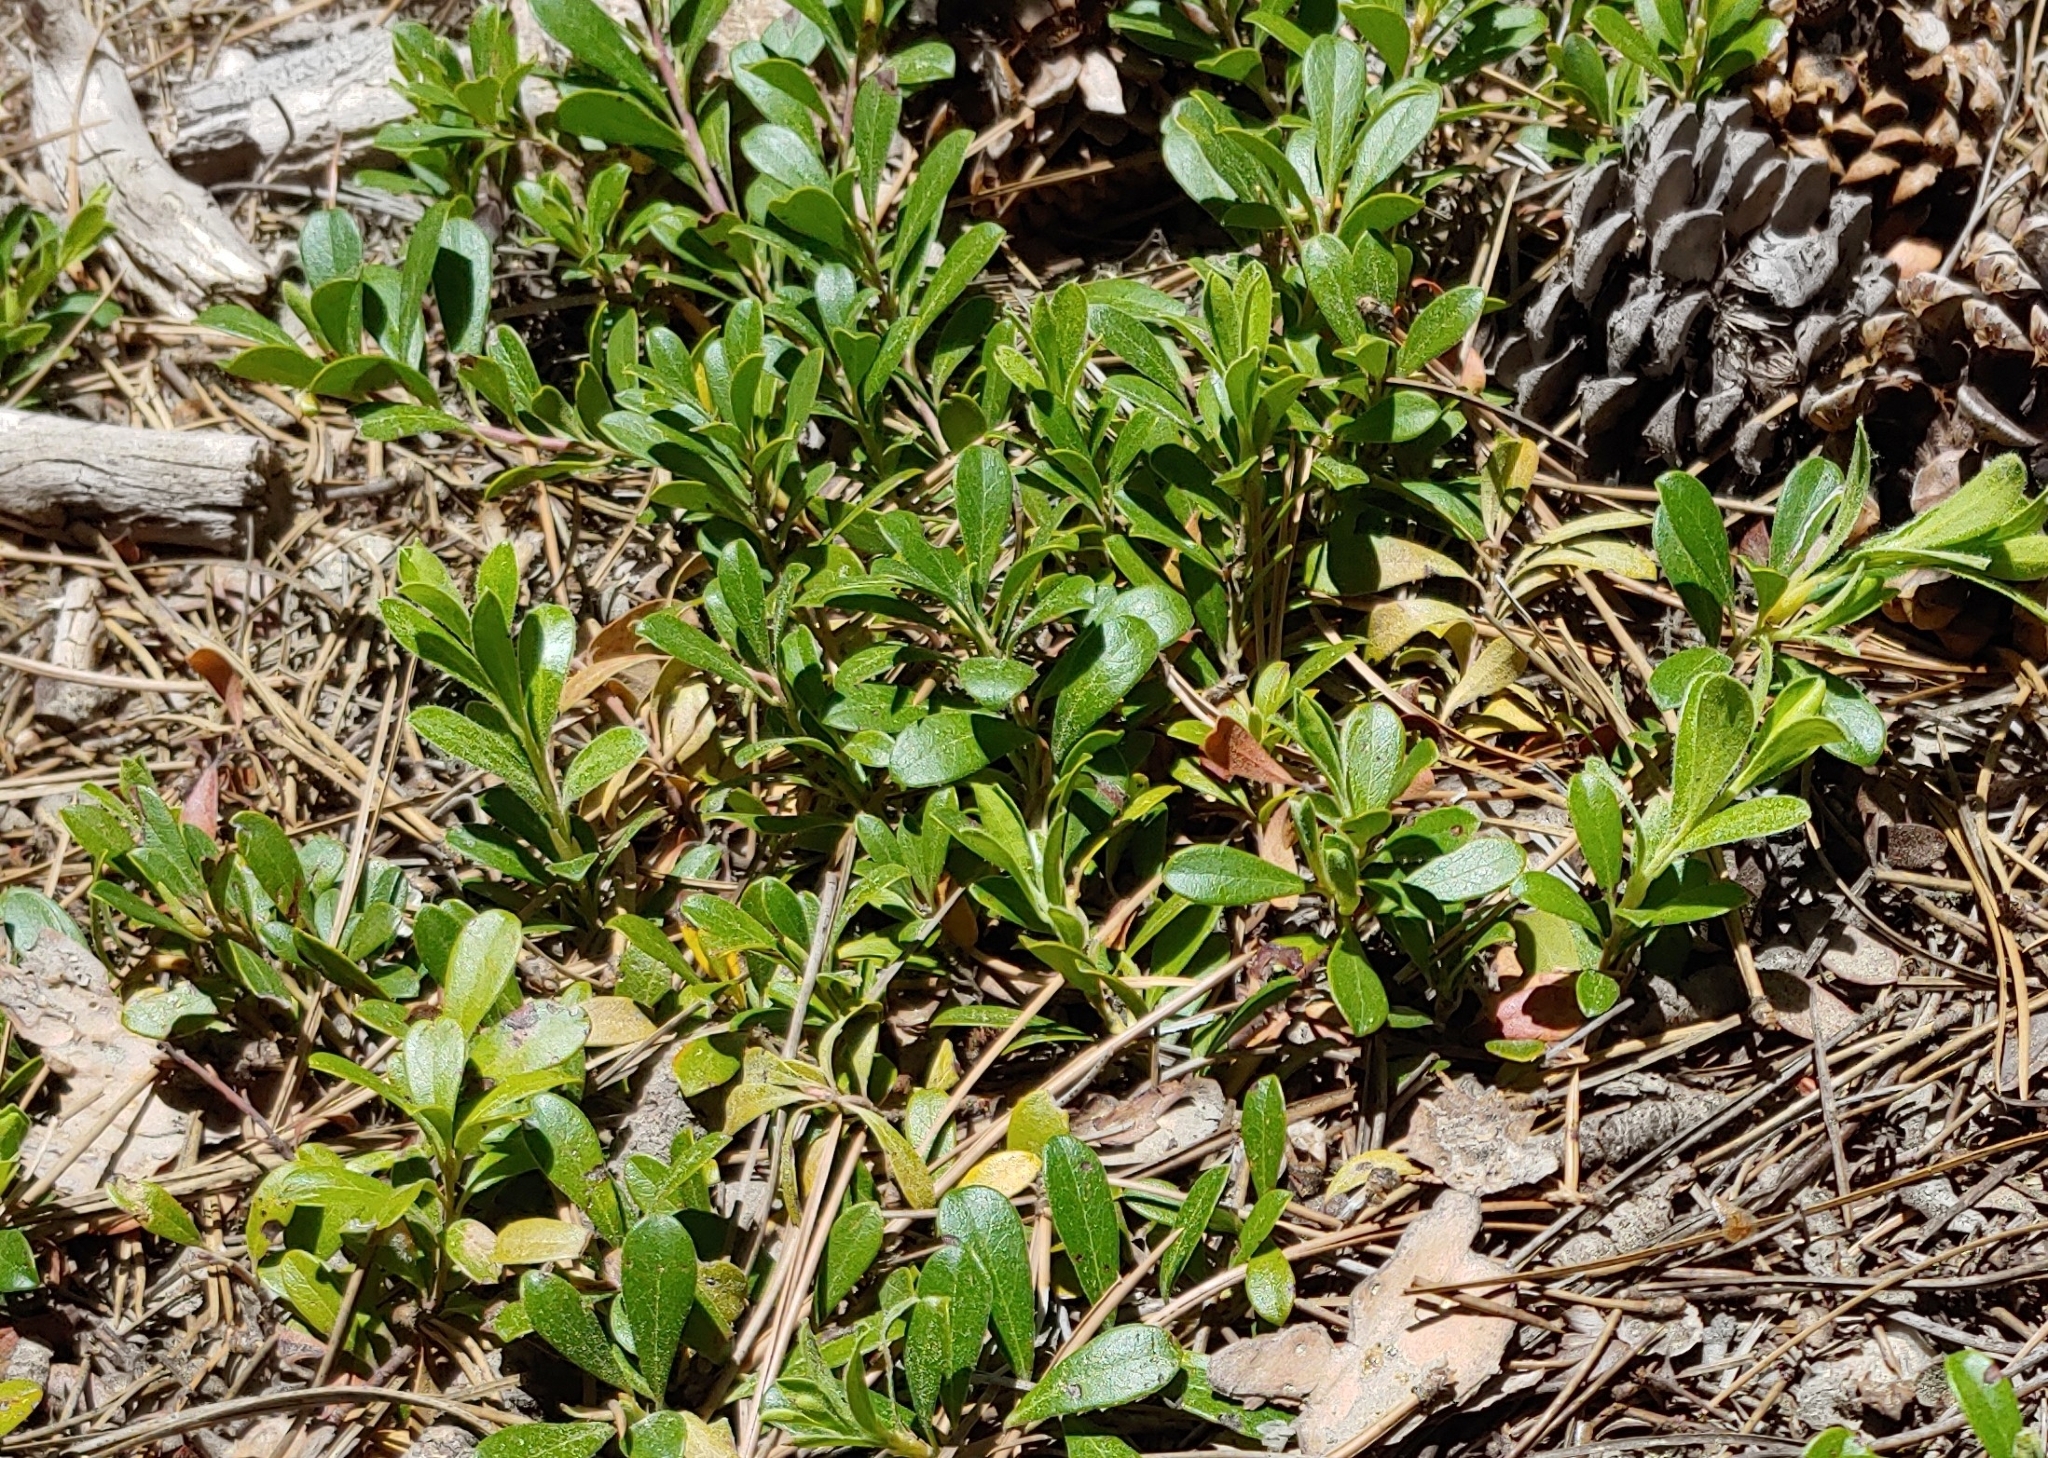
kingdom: Plantae
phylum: Tracheophyta
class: Magnoliopsida
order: Ericales
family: Ericaceae
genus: Arctostaphylos
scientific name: Arctostaphylos uva-ursi
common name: Bearberry
